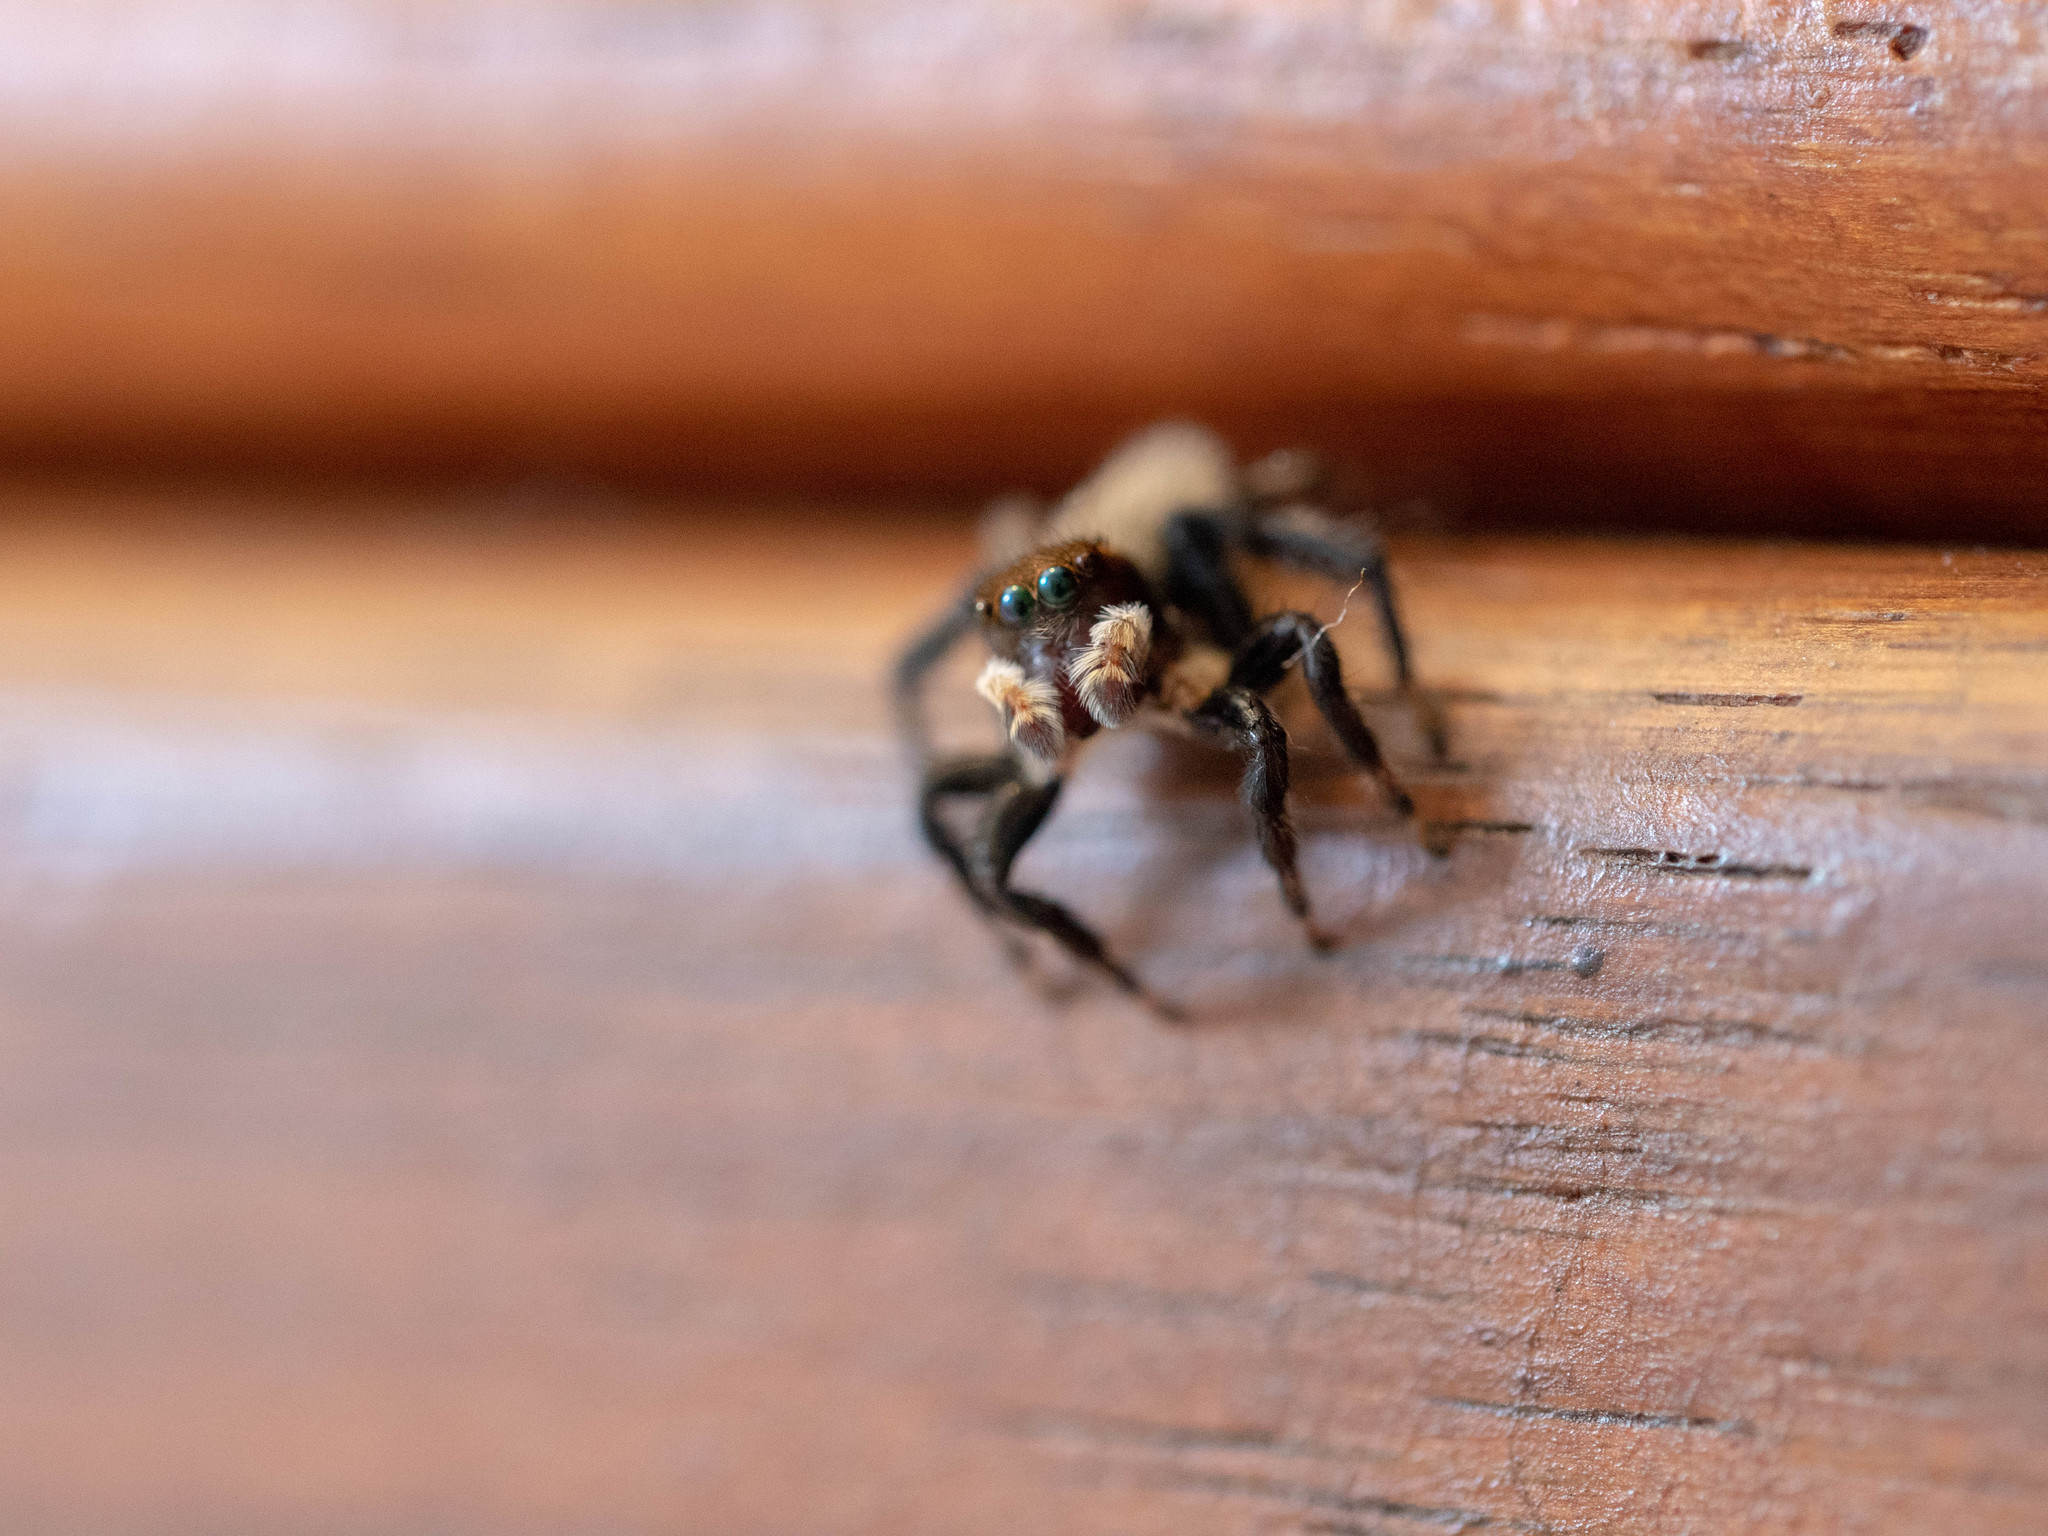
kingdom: Animalia
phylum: Arthropoda
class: Arachnida
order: Araneae
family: Salticidae
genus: Maratus
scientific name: Maratus griseus
